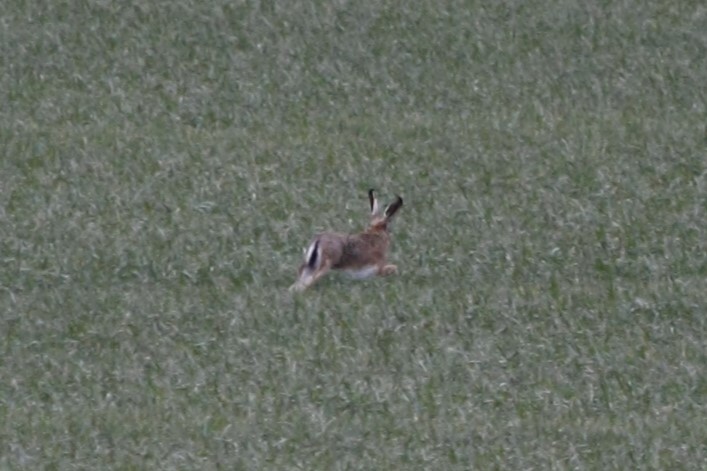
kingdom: Animalia
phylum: Chordata
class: Mammalia
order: Lagomorpha
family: Leporidae
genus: Lepus
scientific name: Lepus europaeus
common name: European hare
